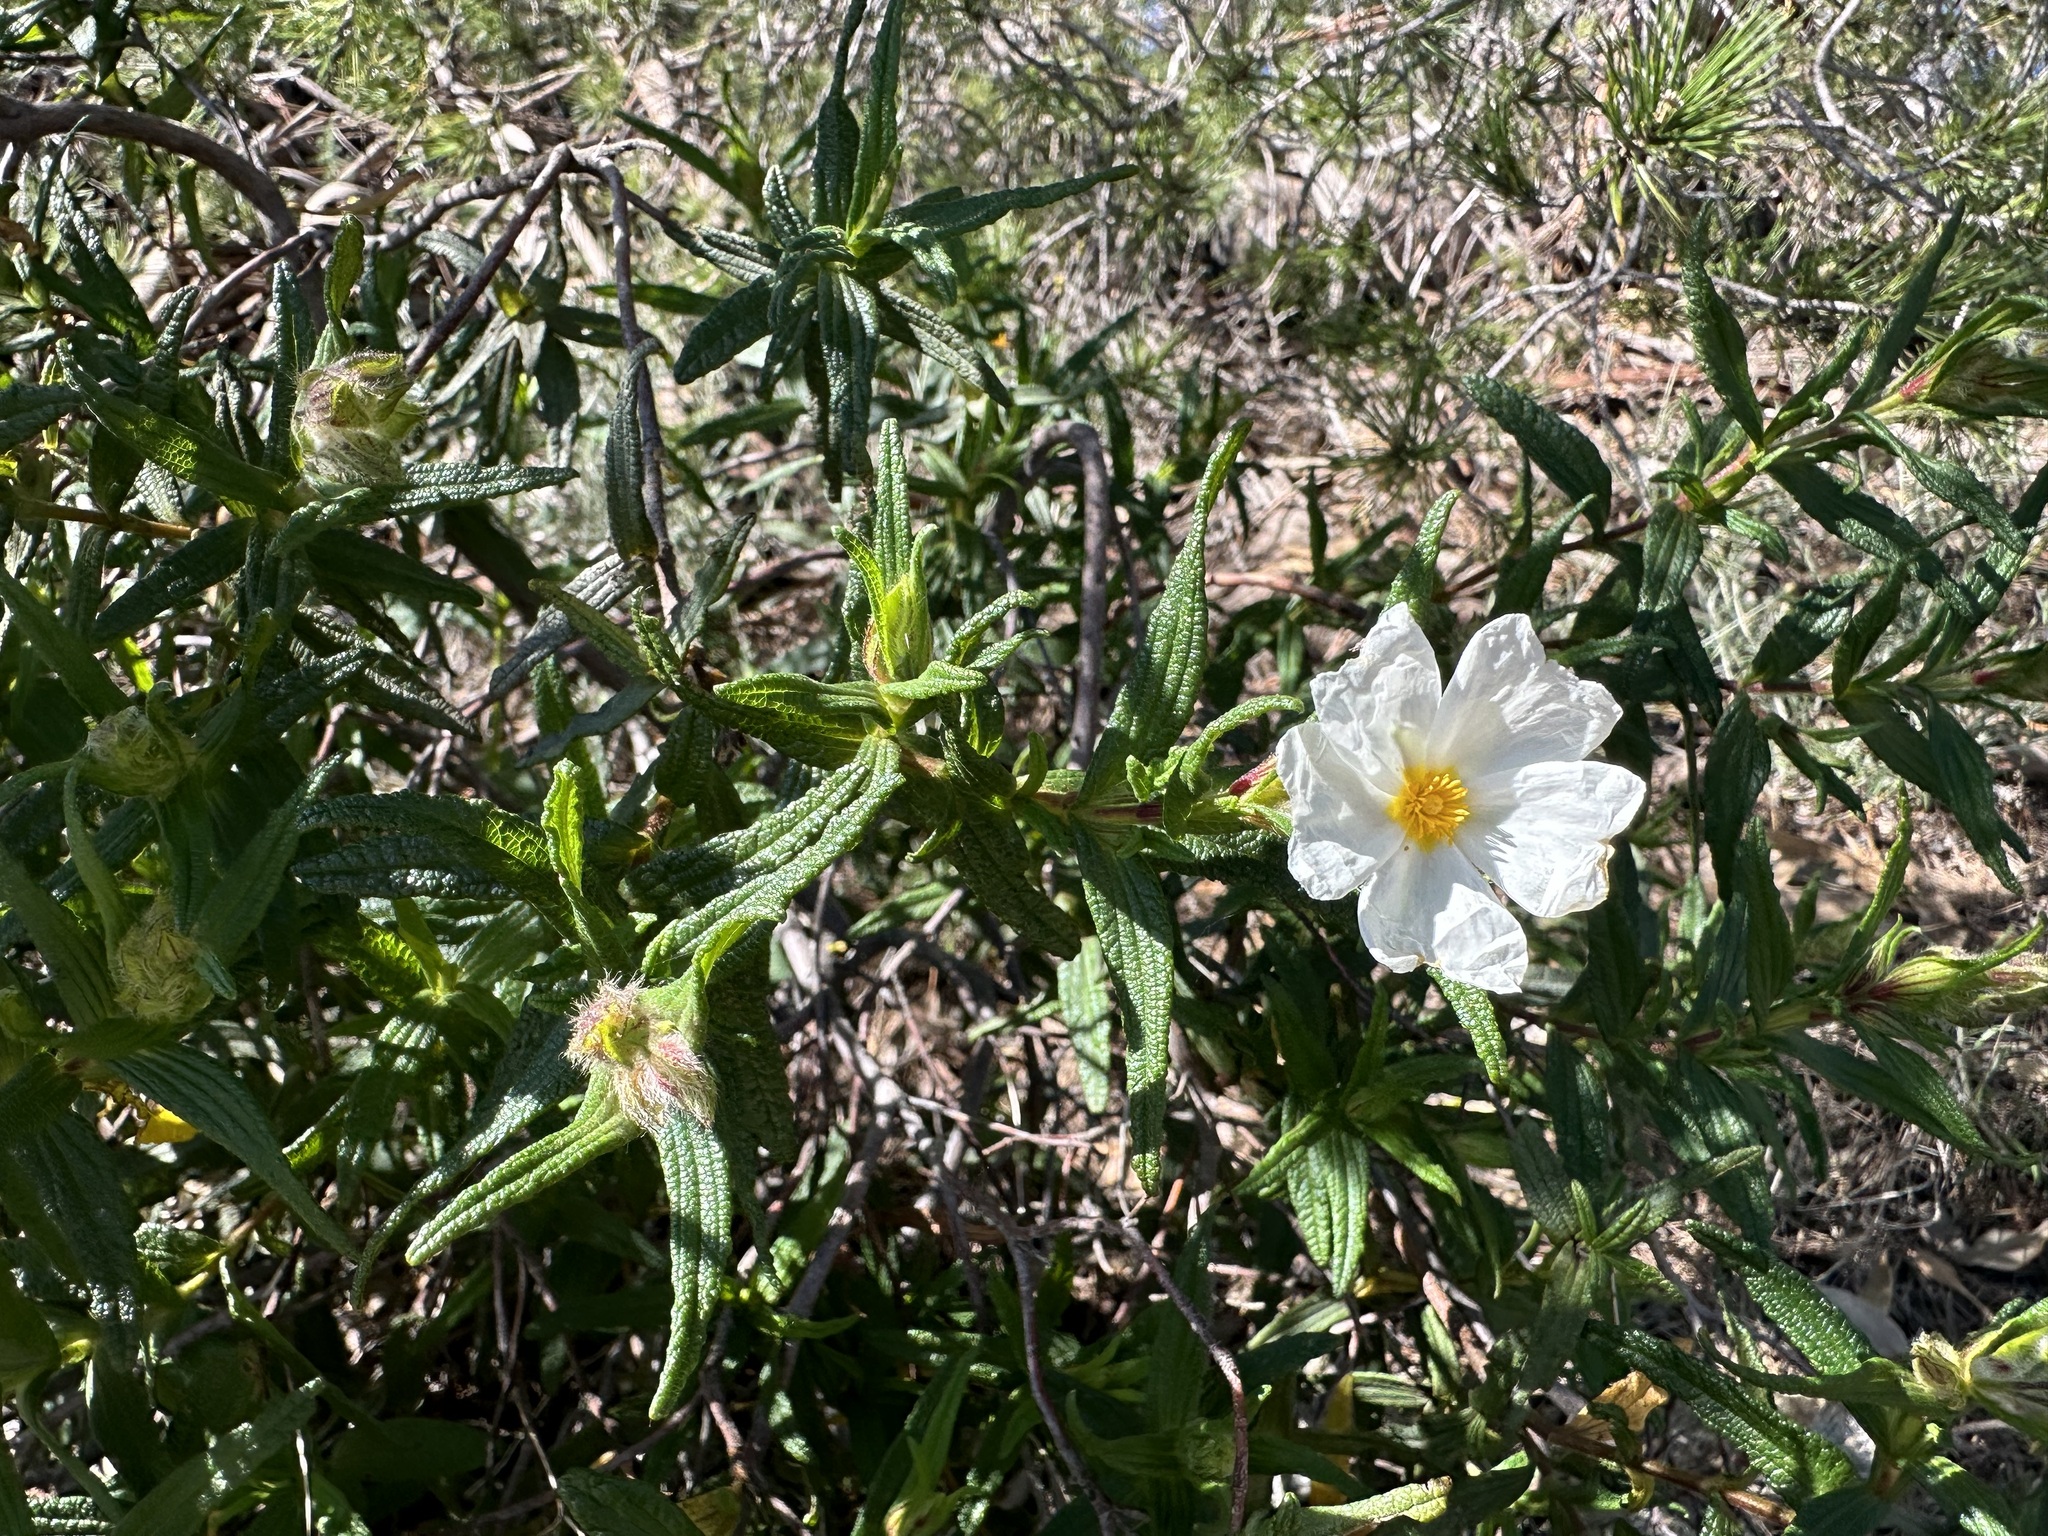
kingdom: Plantae
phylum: Tracheophyta
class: Magnoliopsida
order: Malvales
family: Cistaceae
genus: Cistus
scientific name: Cistus monspeliensis
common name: Montpelier cistus
